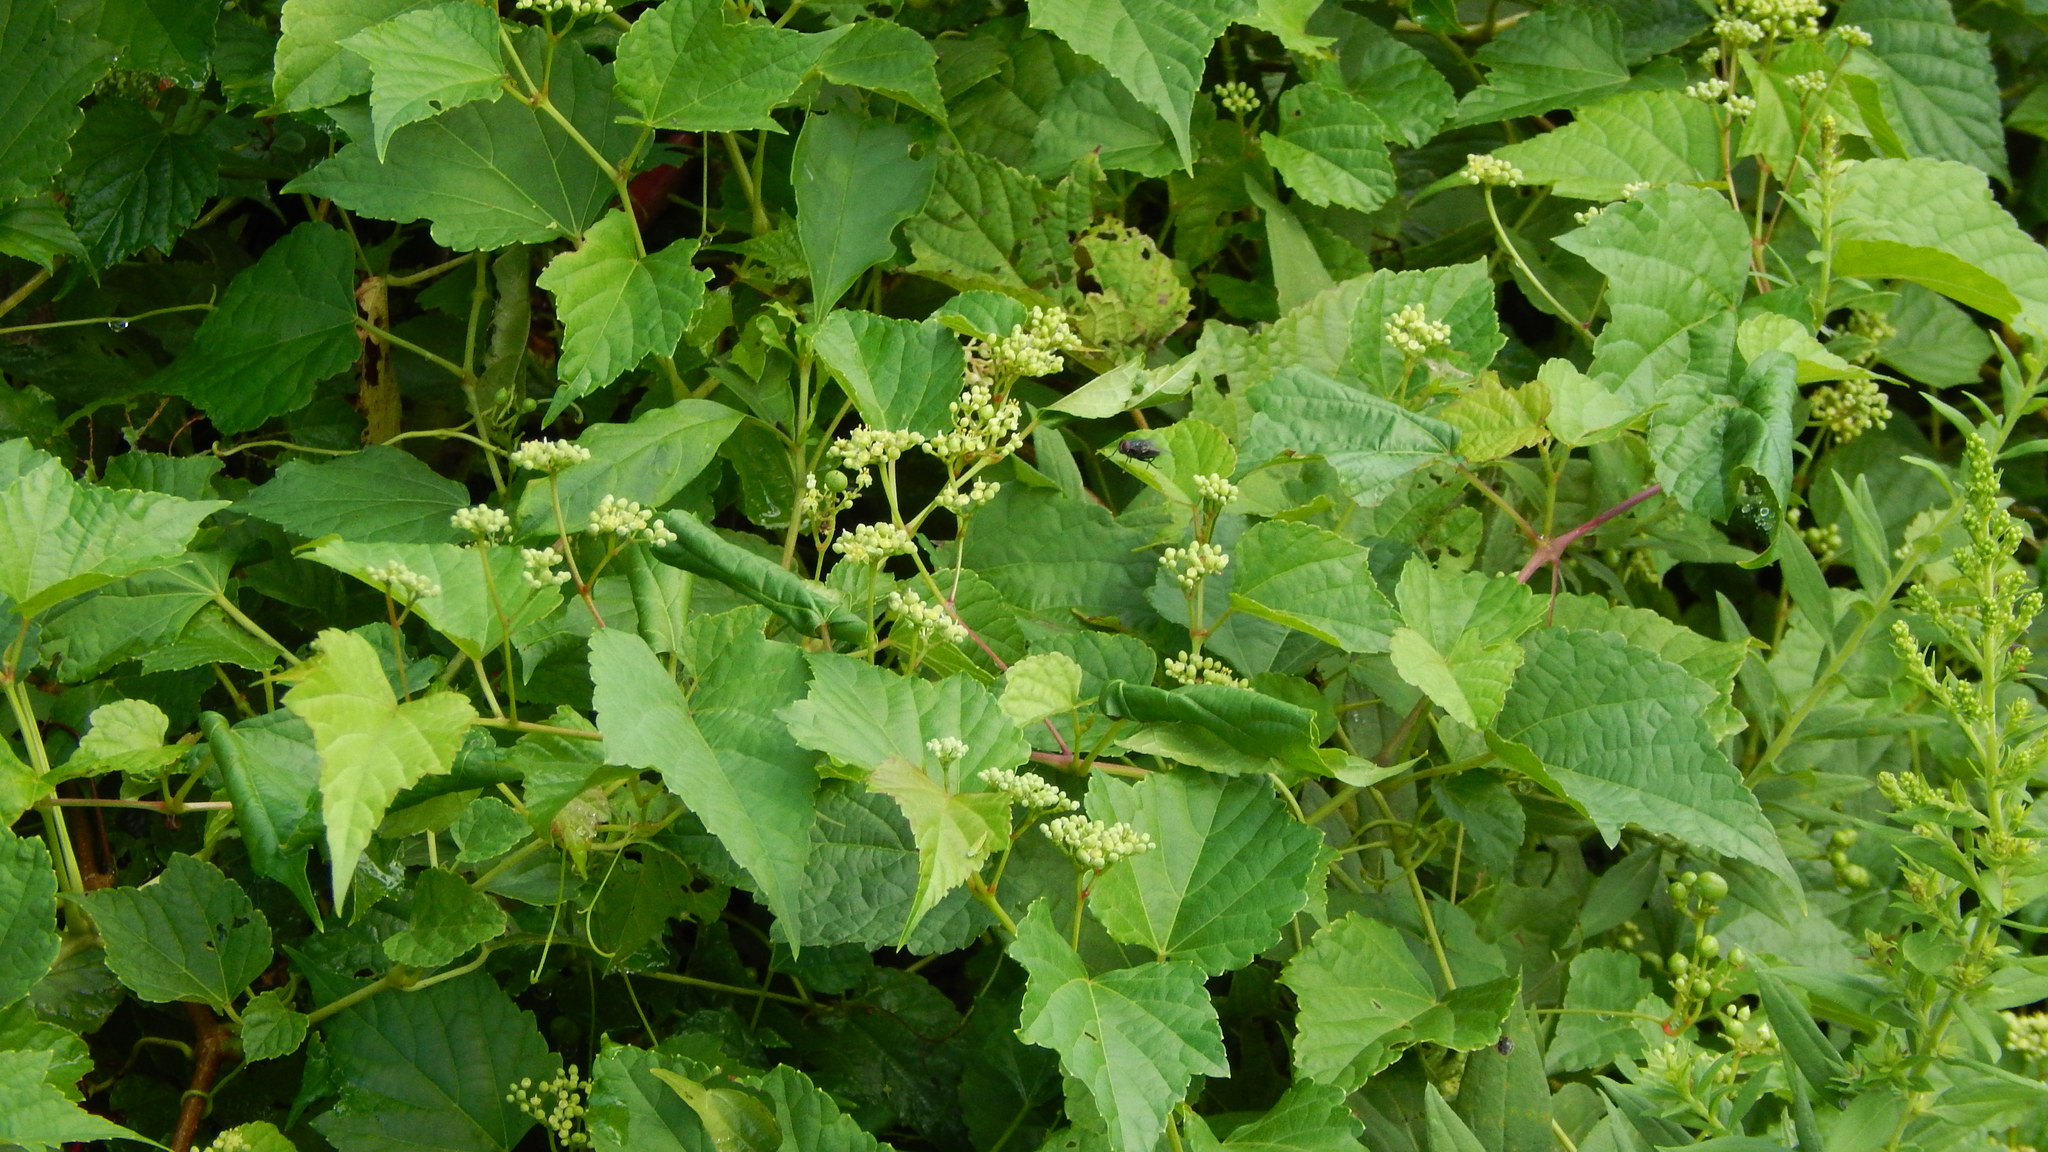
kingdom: Plantae
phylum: Tracheophyta
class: Magnoliopsida
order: Vitales
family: Vitaceae
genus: Ampelopsis
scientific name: Ampelopsis glandulosa
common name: Amur peppervine
